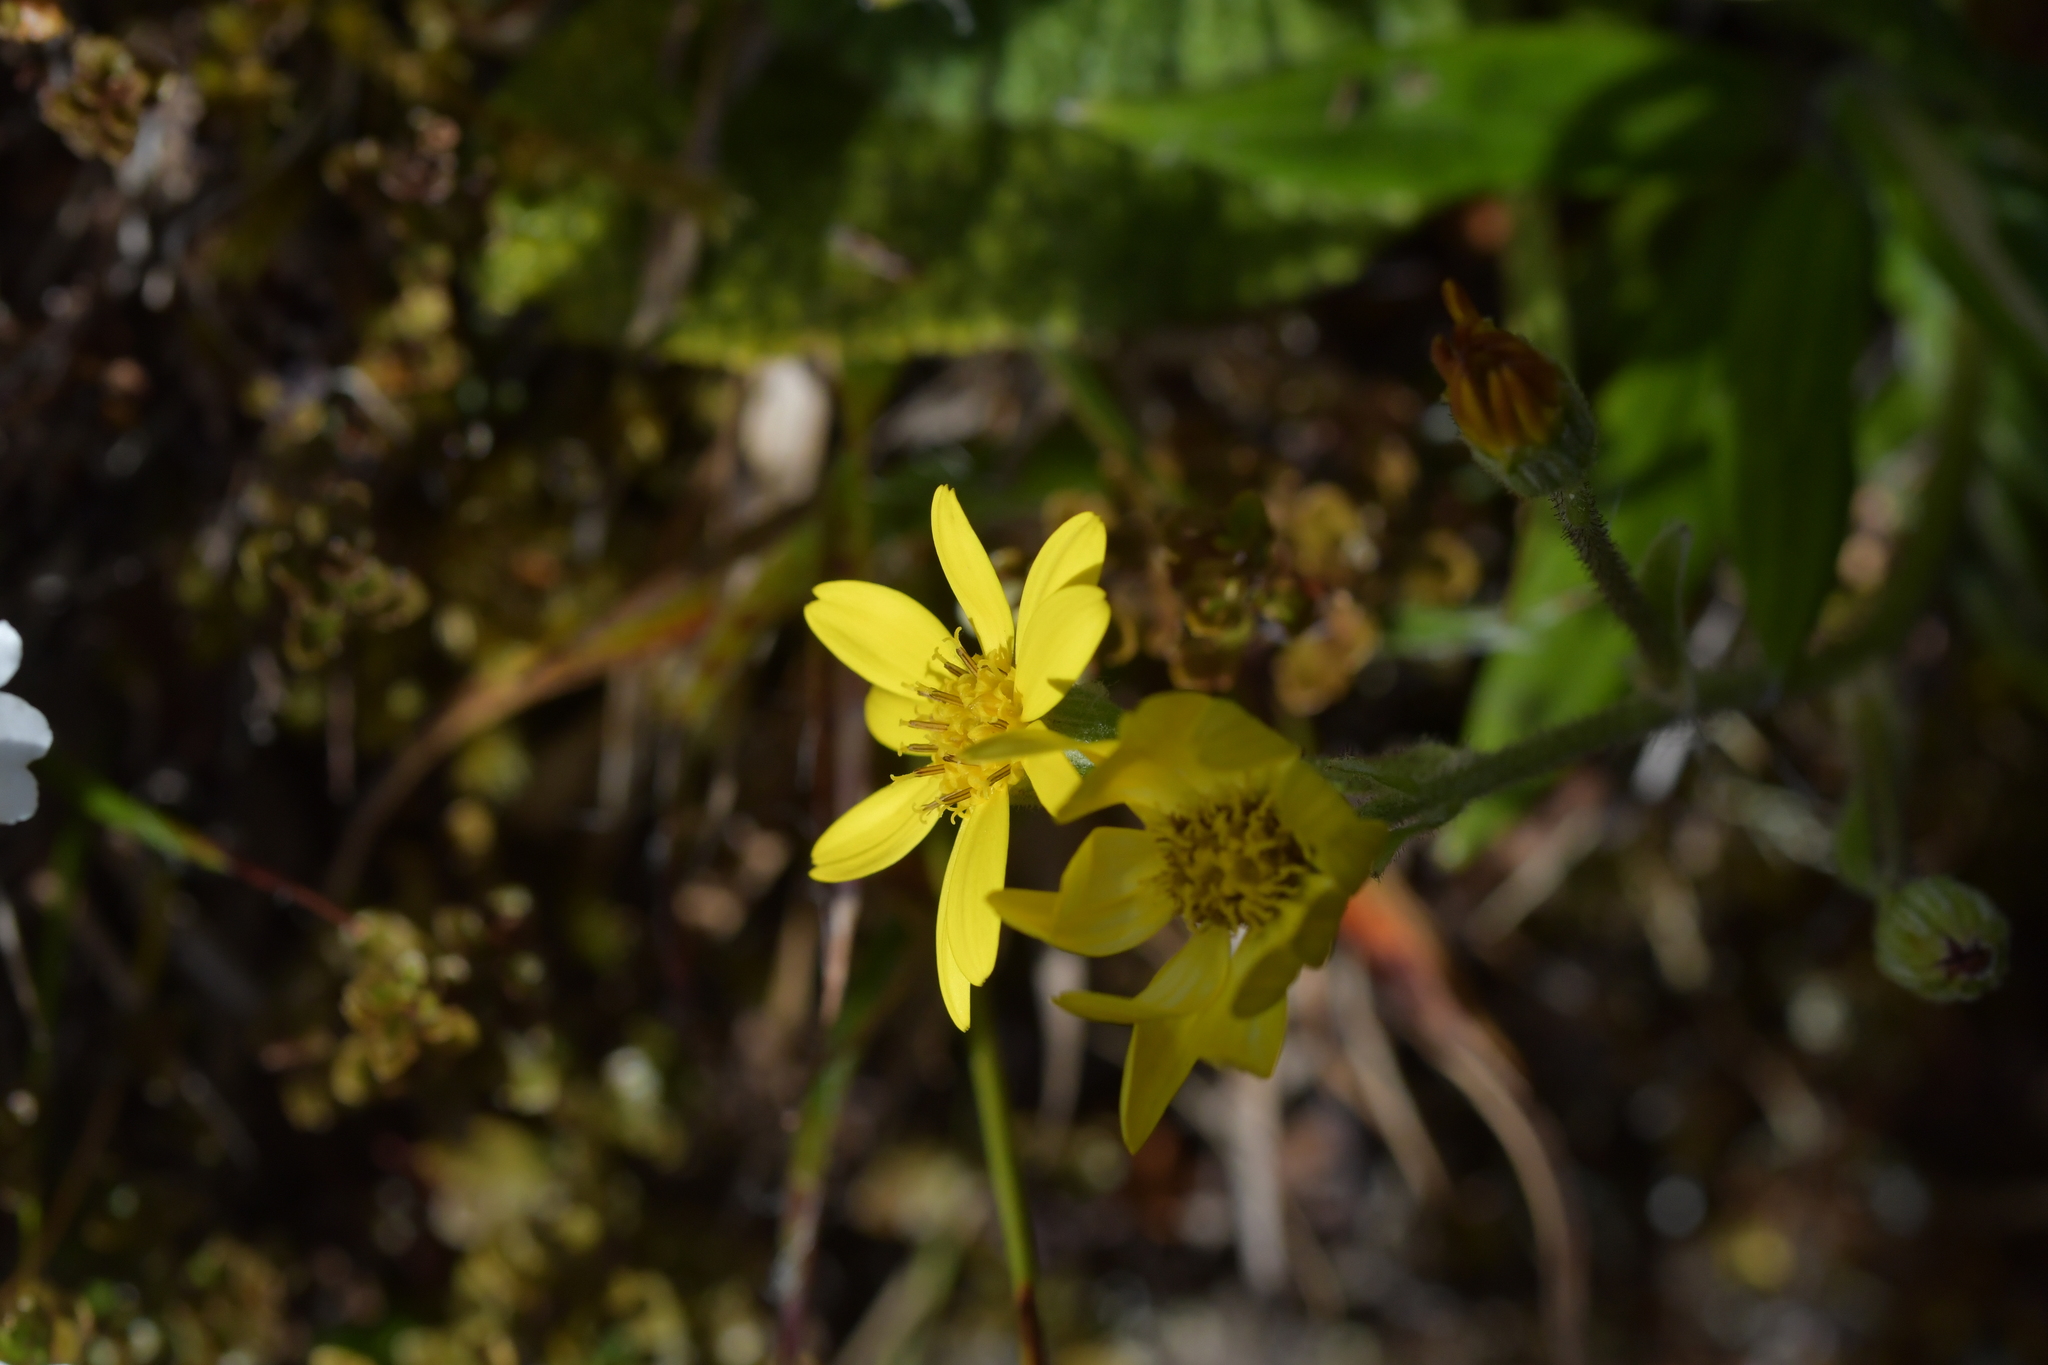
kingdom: Plantae
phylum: Tracheophyta
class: Magnoliopsida
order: Asterales
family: Asteraceae
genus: Brachyglottis
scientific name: Brachyglottis lagopus
